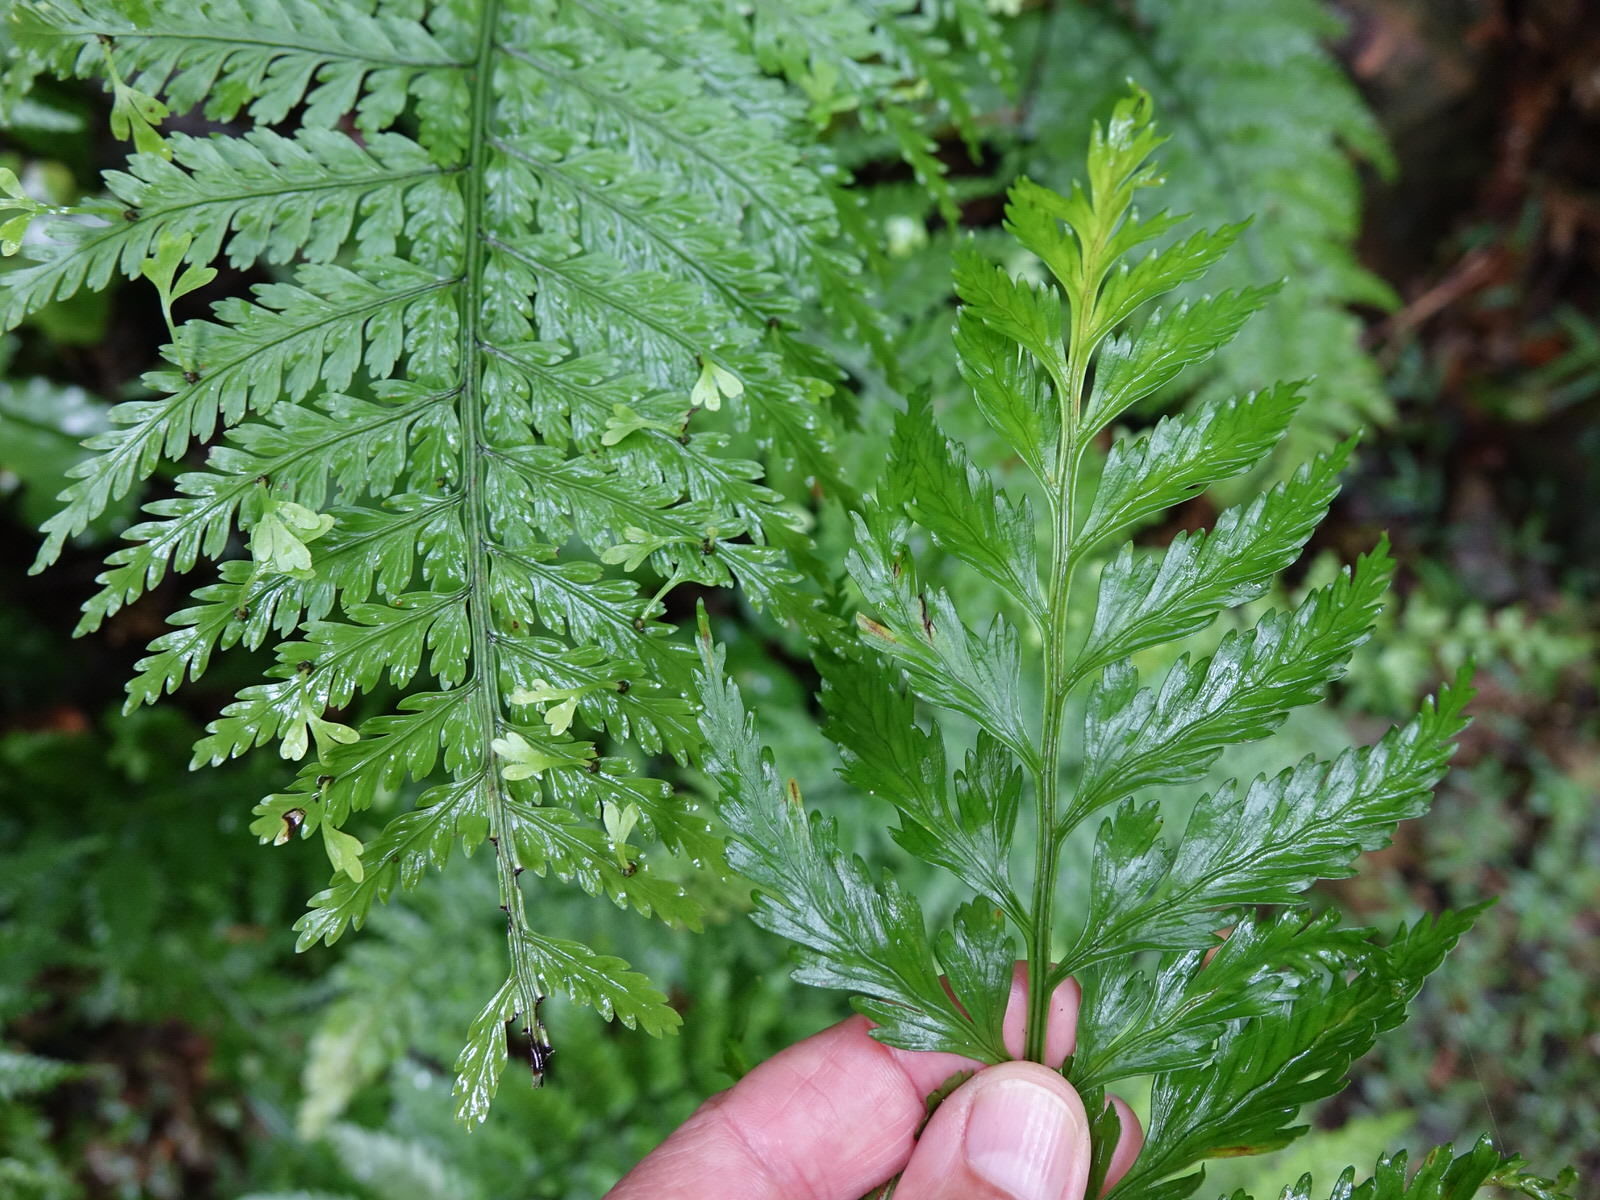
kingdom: Plantae
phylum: Tracheophyta
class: Polypodiopsida
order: Polypodiales
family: Aspleniaceae
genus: Asplenium
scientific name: Asplenium lamprophyllum
